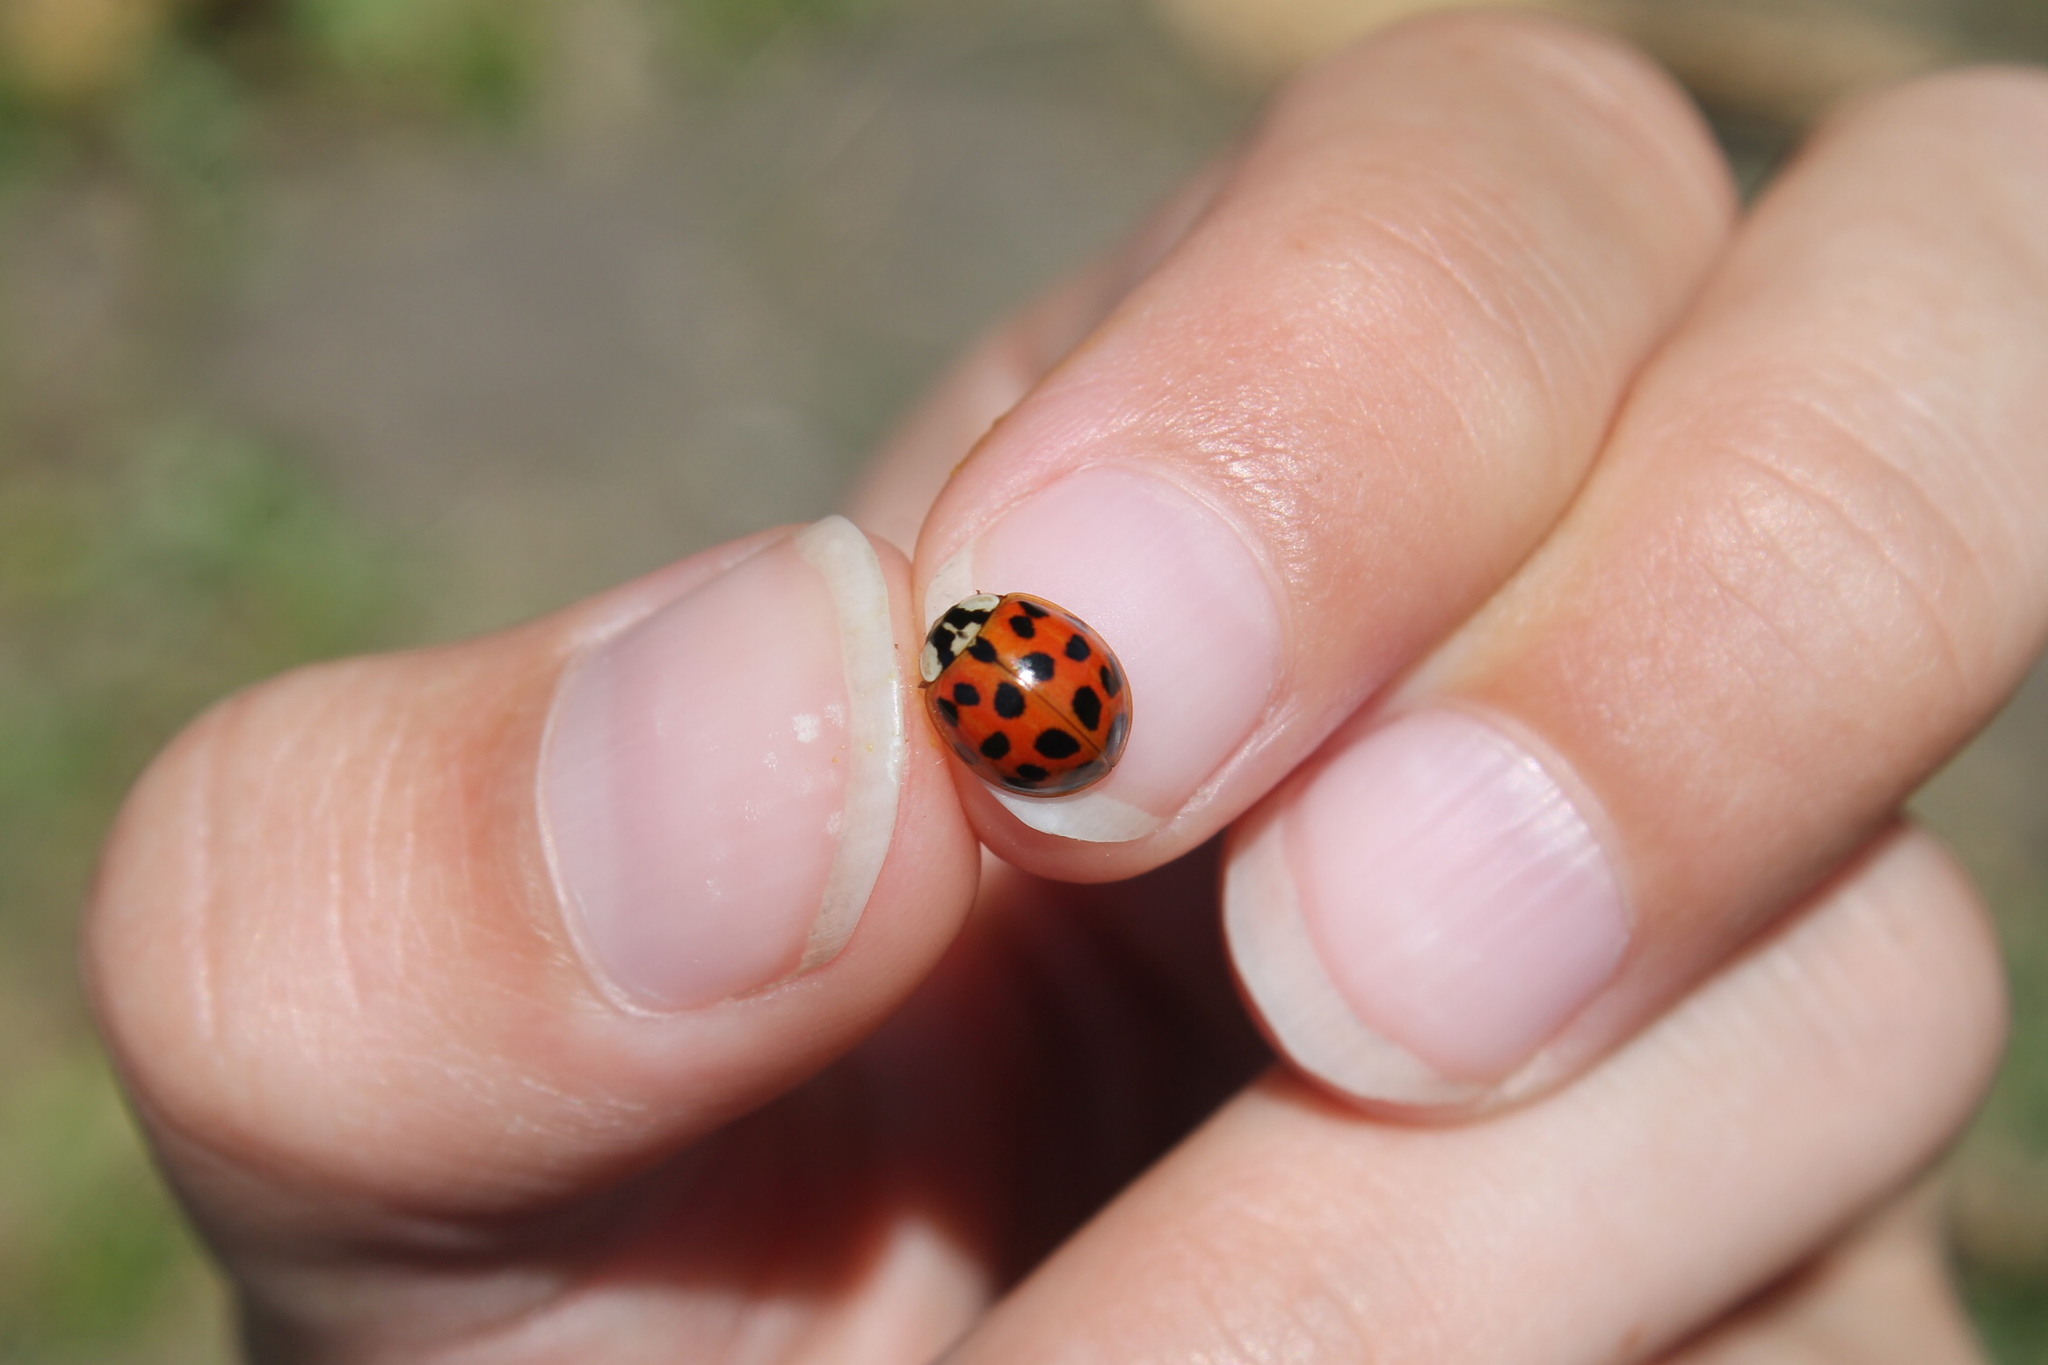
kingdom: Animalia
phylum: Arthropoda
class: Insecta
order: Coleoptera
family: Coccinellidae
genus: Harmonia
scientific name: Harmonia axyridis
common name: Harlequin ladybird
